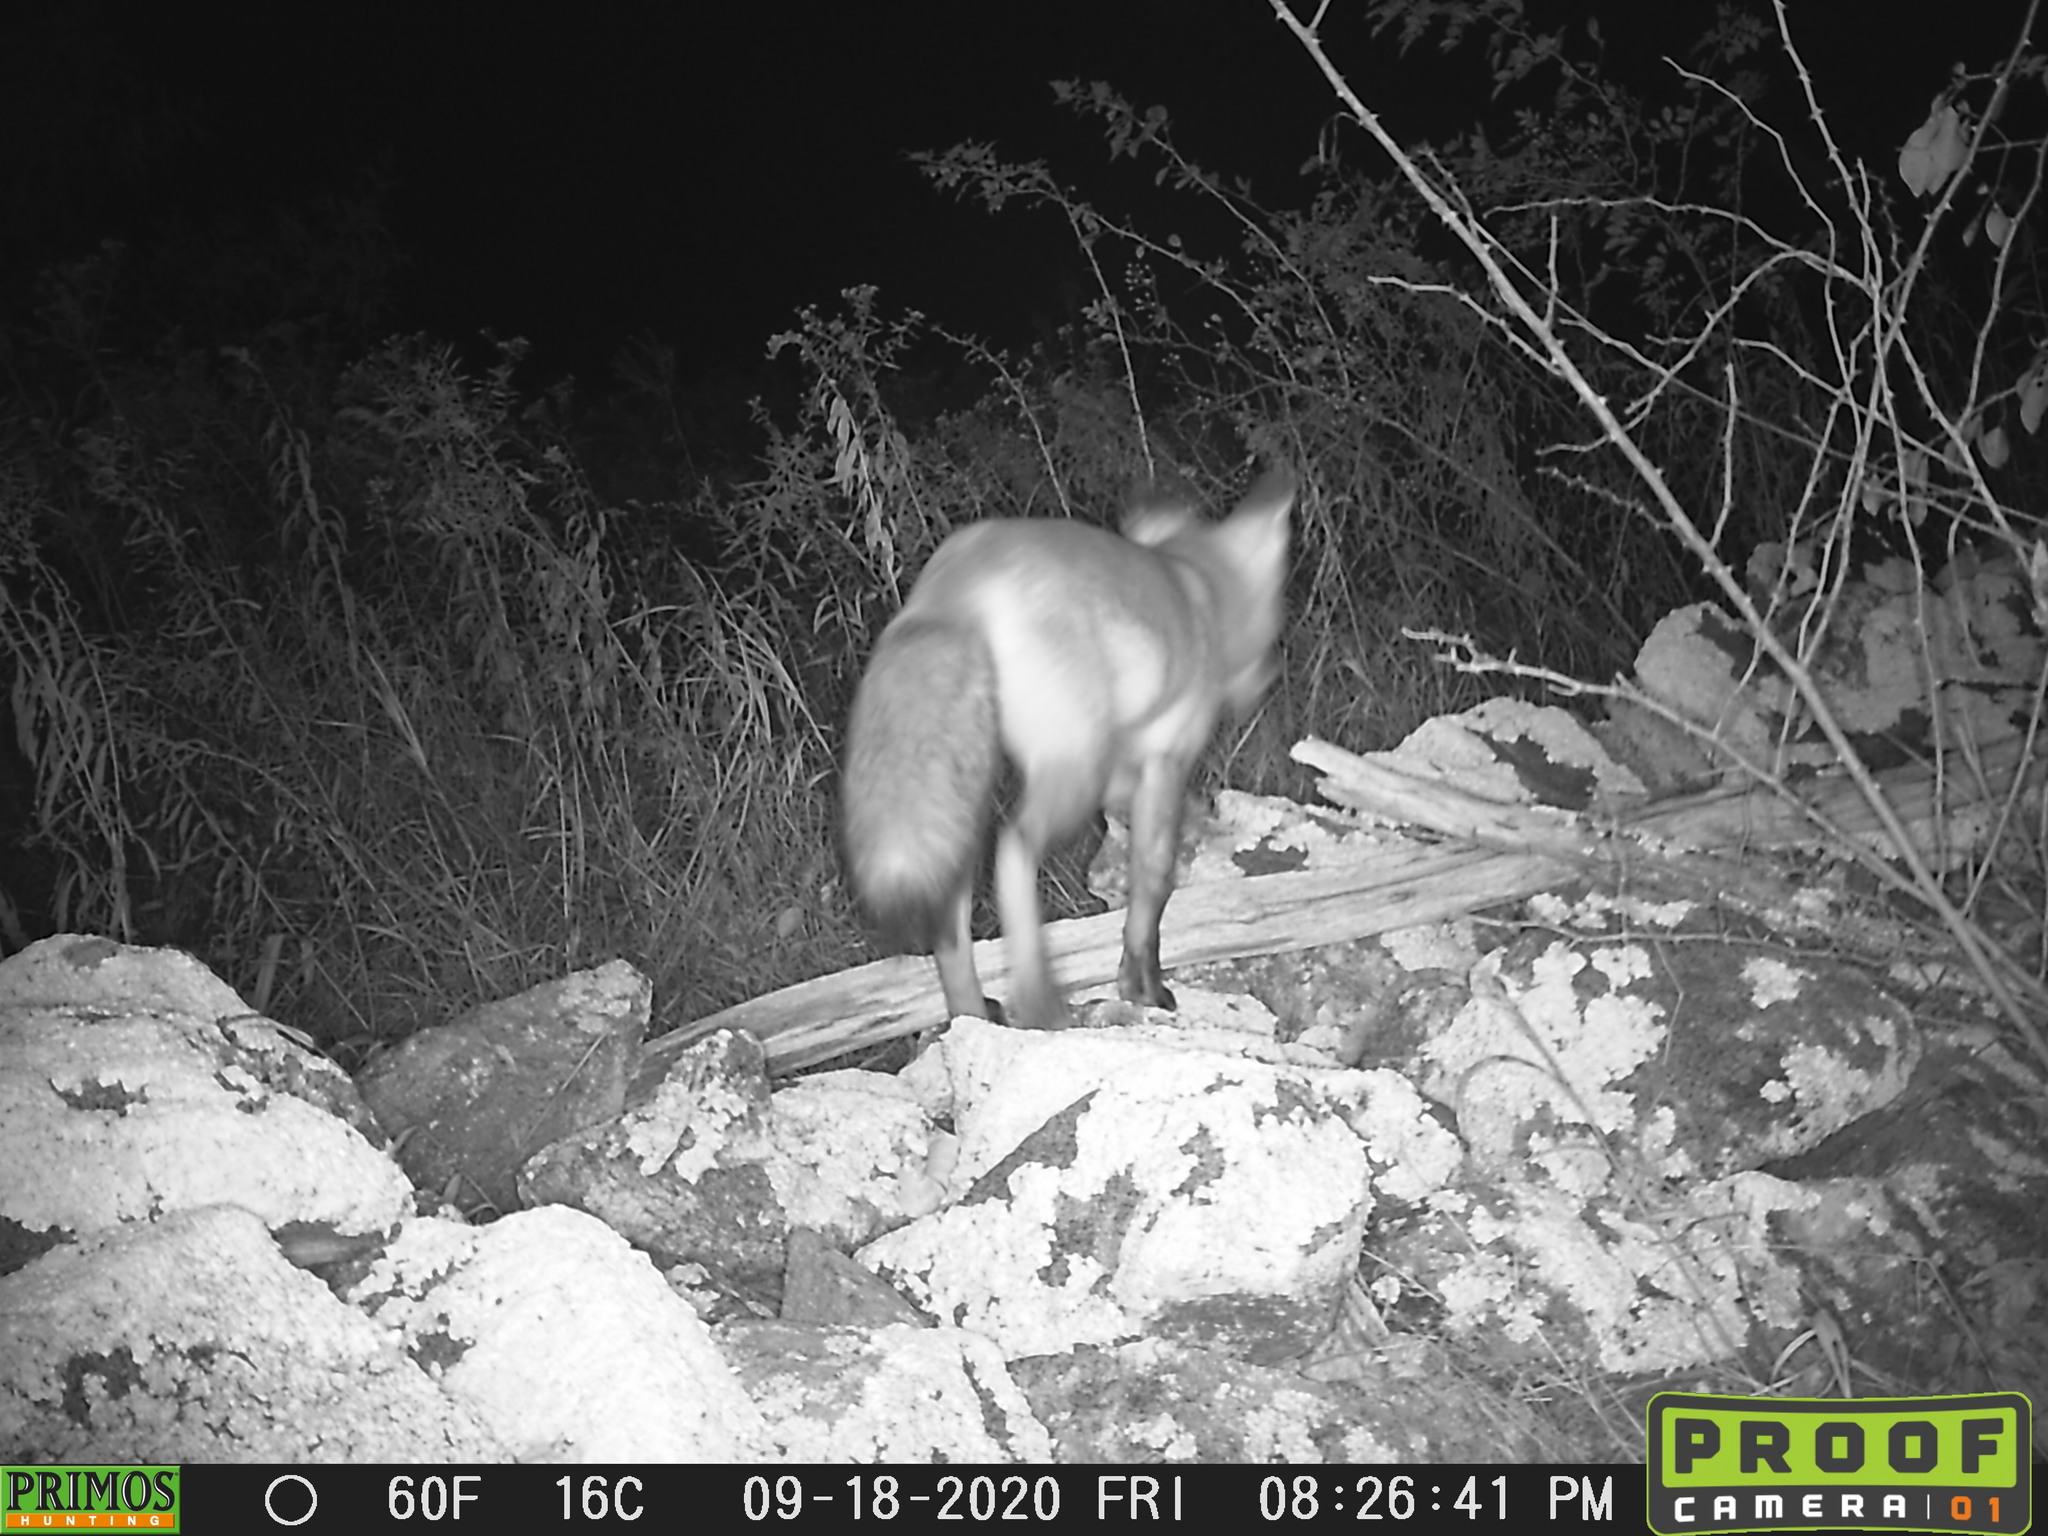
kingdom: Animalia
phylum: Chordata
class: Mammalia
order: Carnivora
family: Canidae
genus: Vulpes
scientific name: Vulpes vulpes
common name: Red fox
